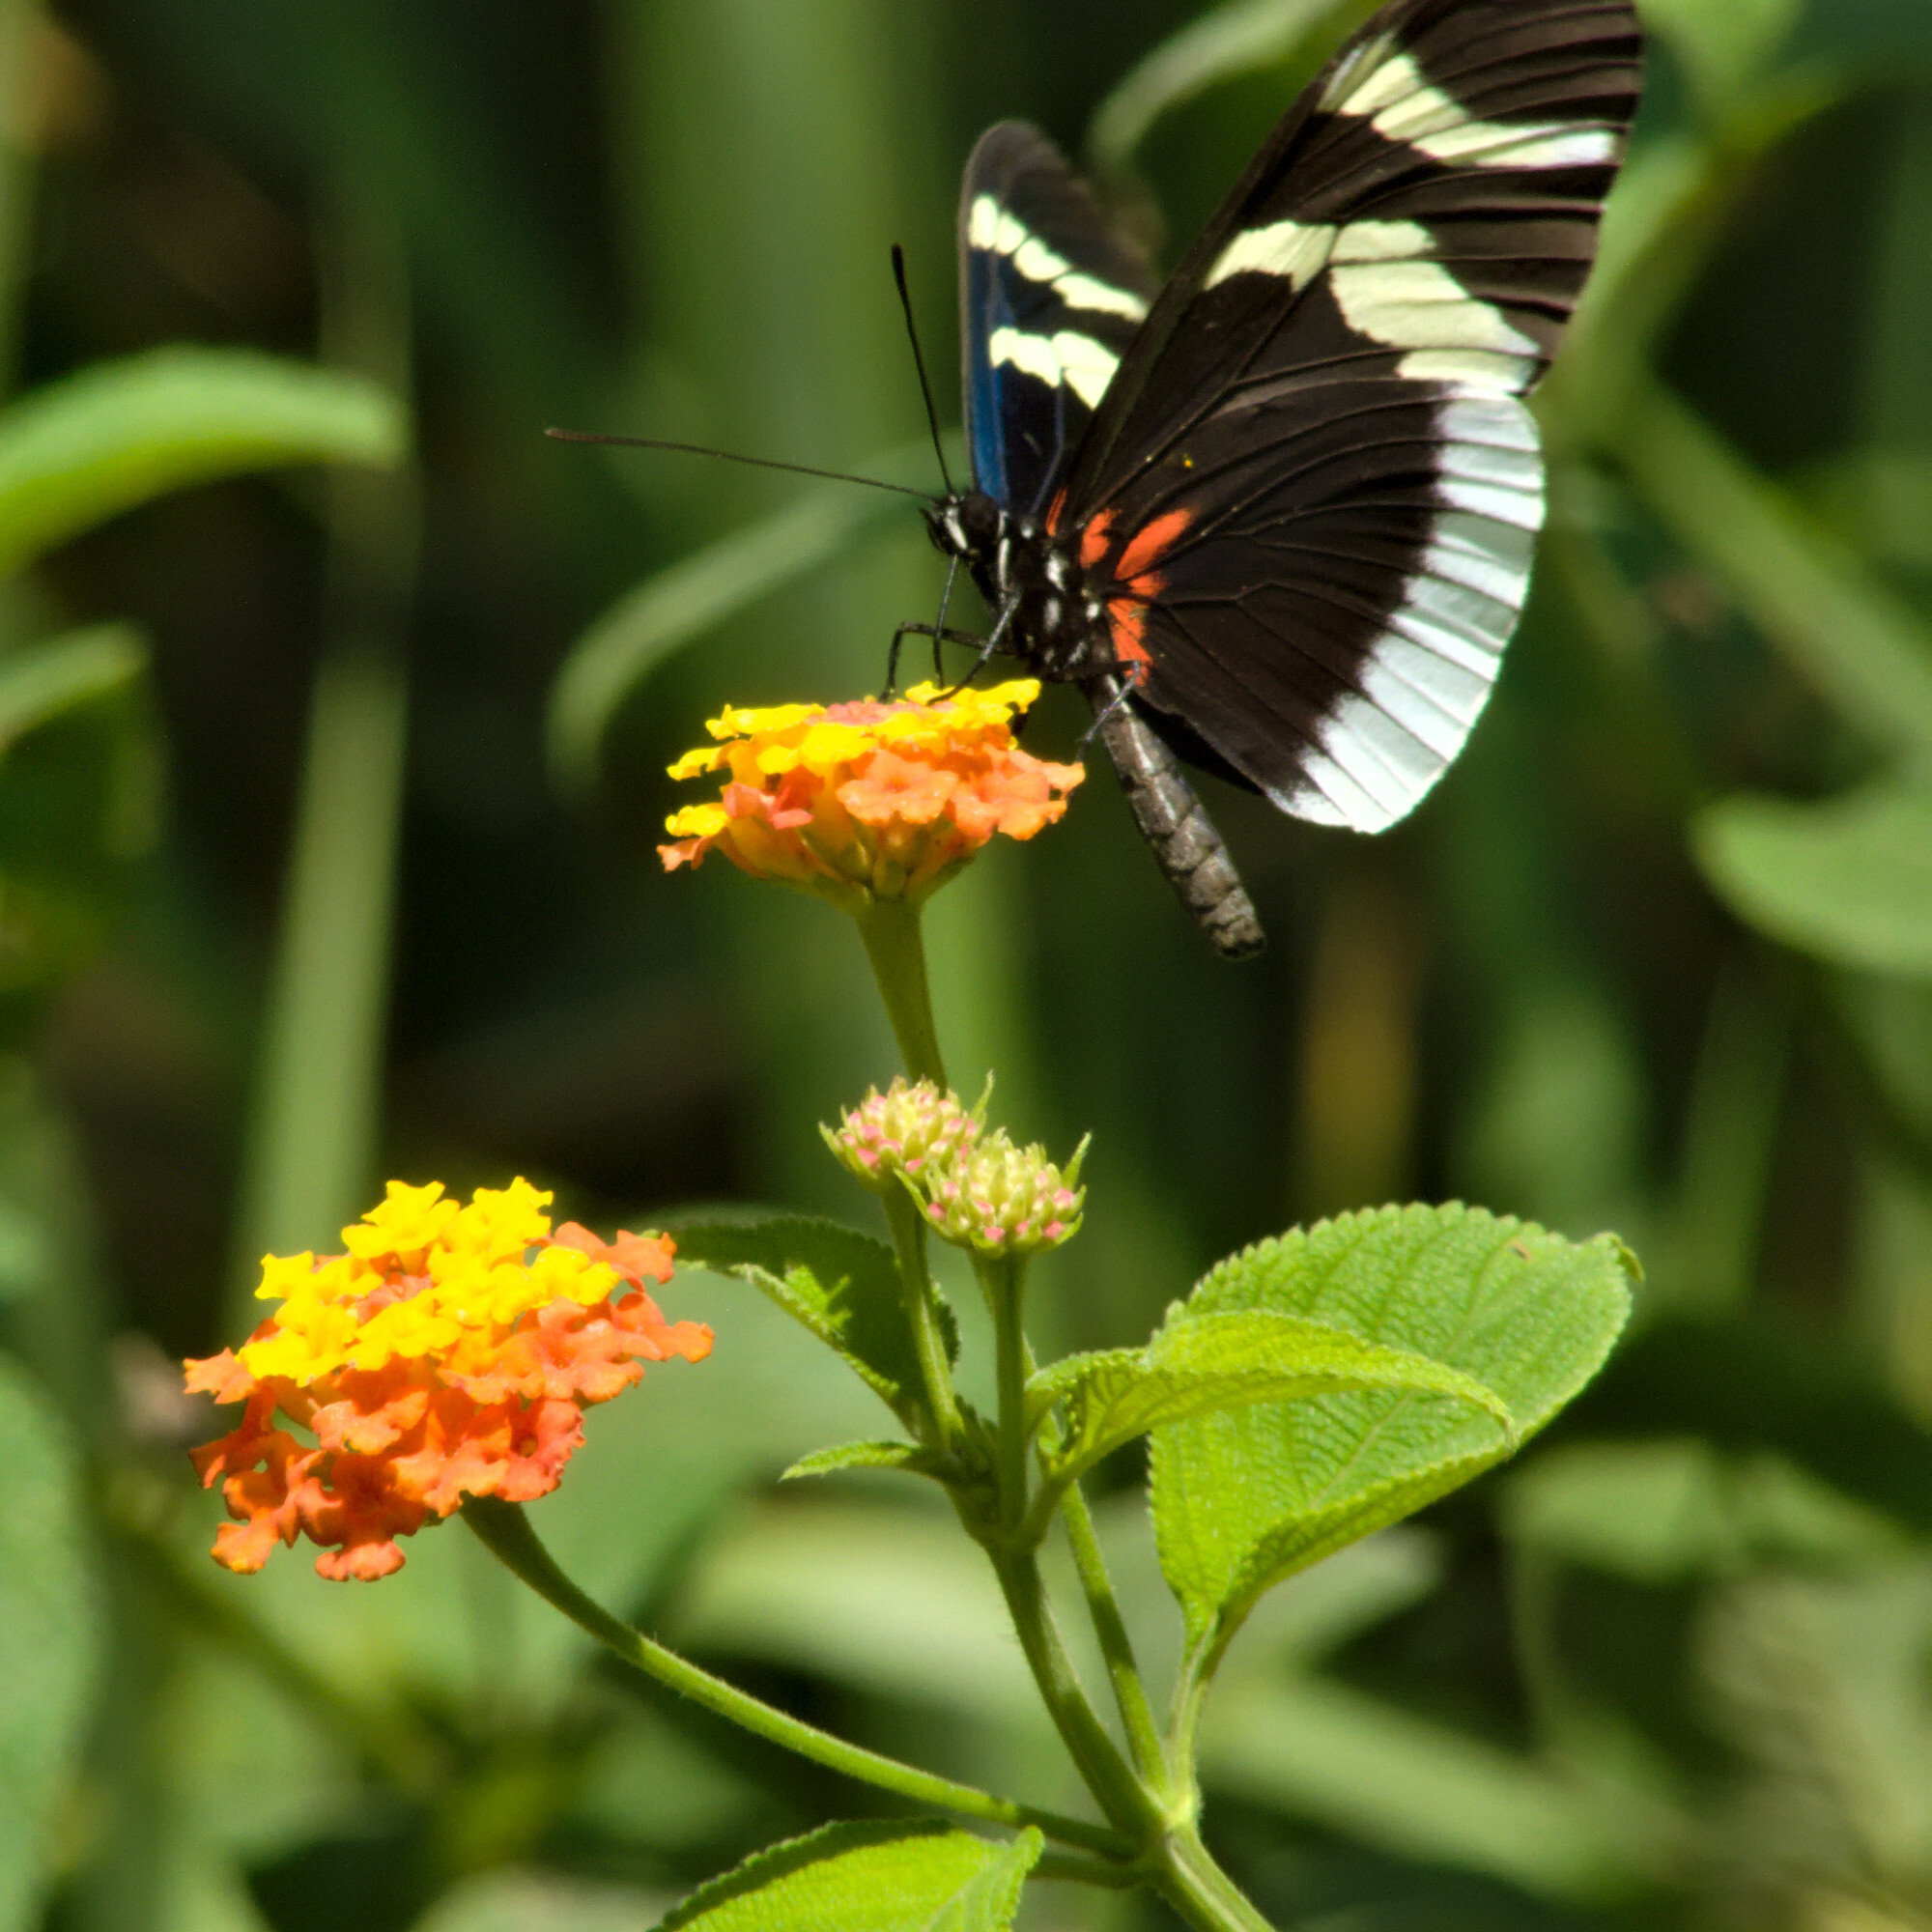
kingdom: Animalia
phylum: Arthropoda
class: Insecta
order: Lepidoptera
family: Nymphalidae
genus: Heliconius
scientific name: Heliconius eleuchia
